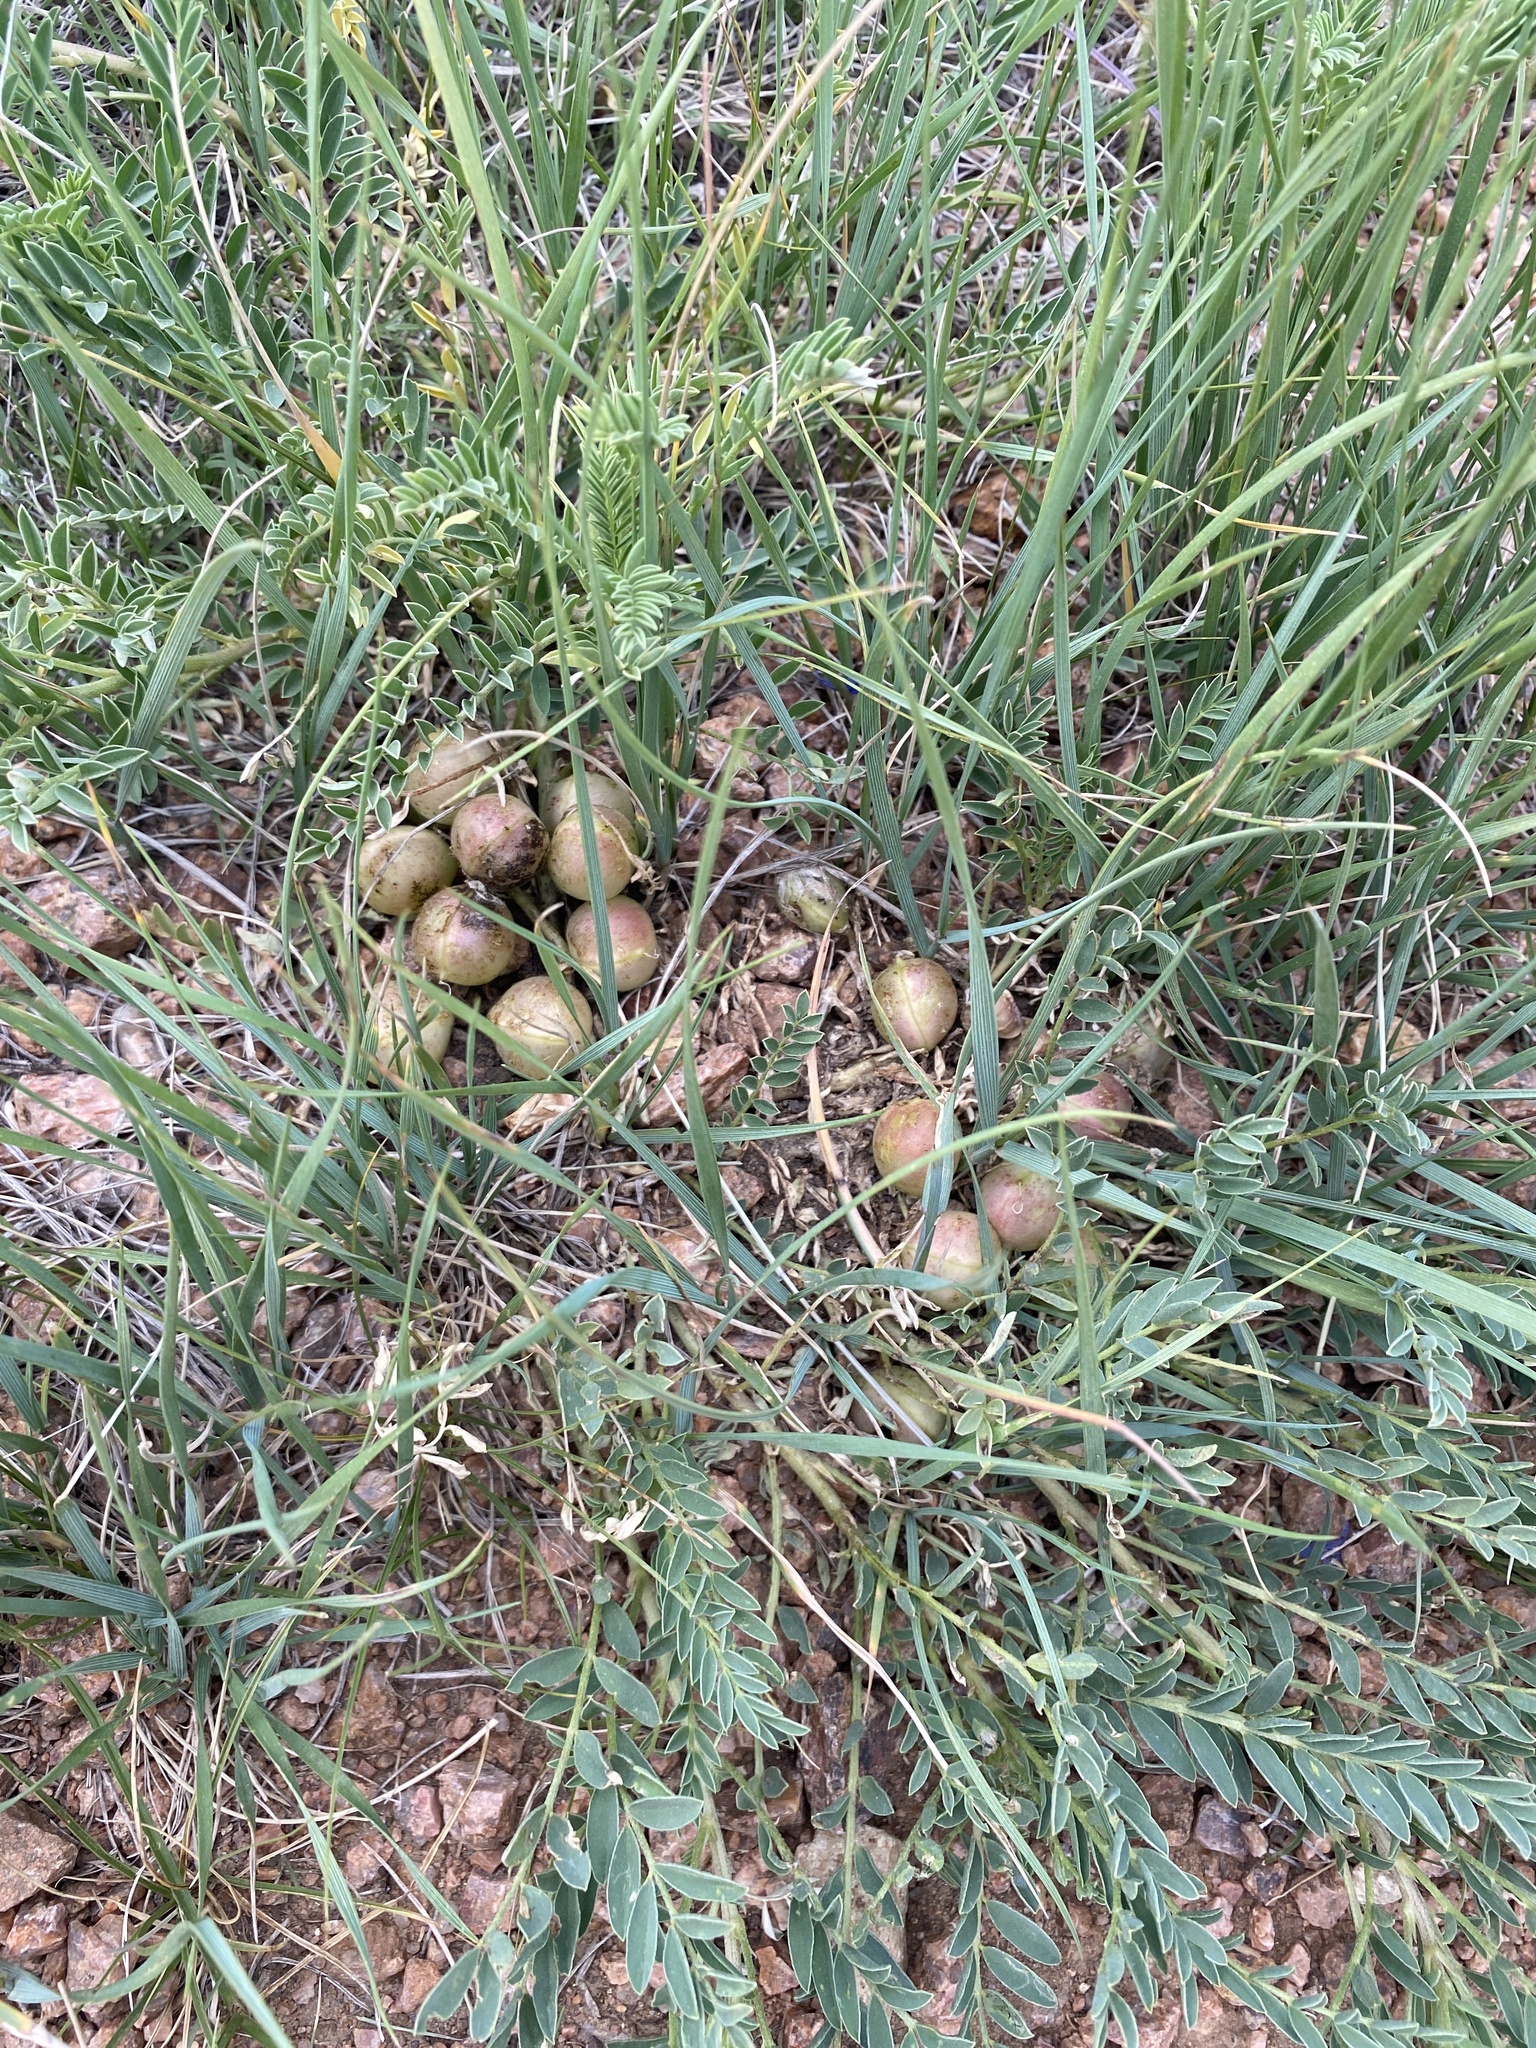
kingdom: Plantae
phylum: Tracheophyta
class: Magnoliopsida
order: Fabales
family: Fabaceae
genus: Astragalus
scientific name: Astragalus crassicarpus
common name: Ground-plum milk-vetch
